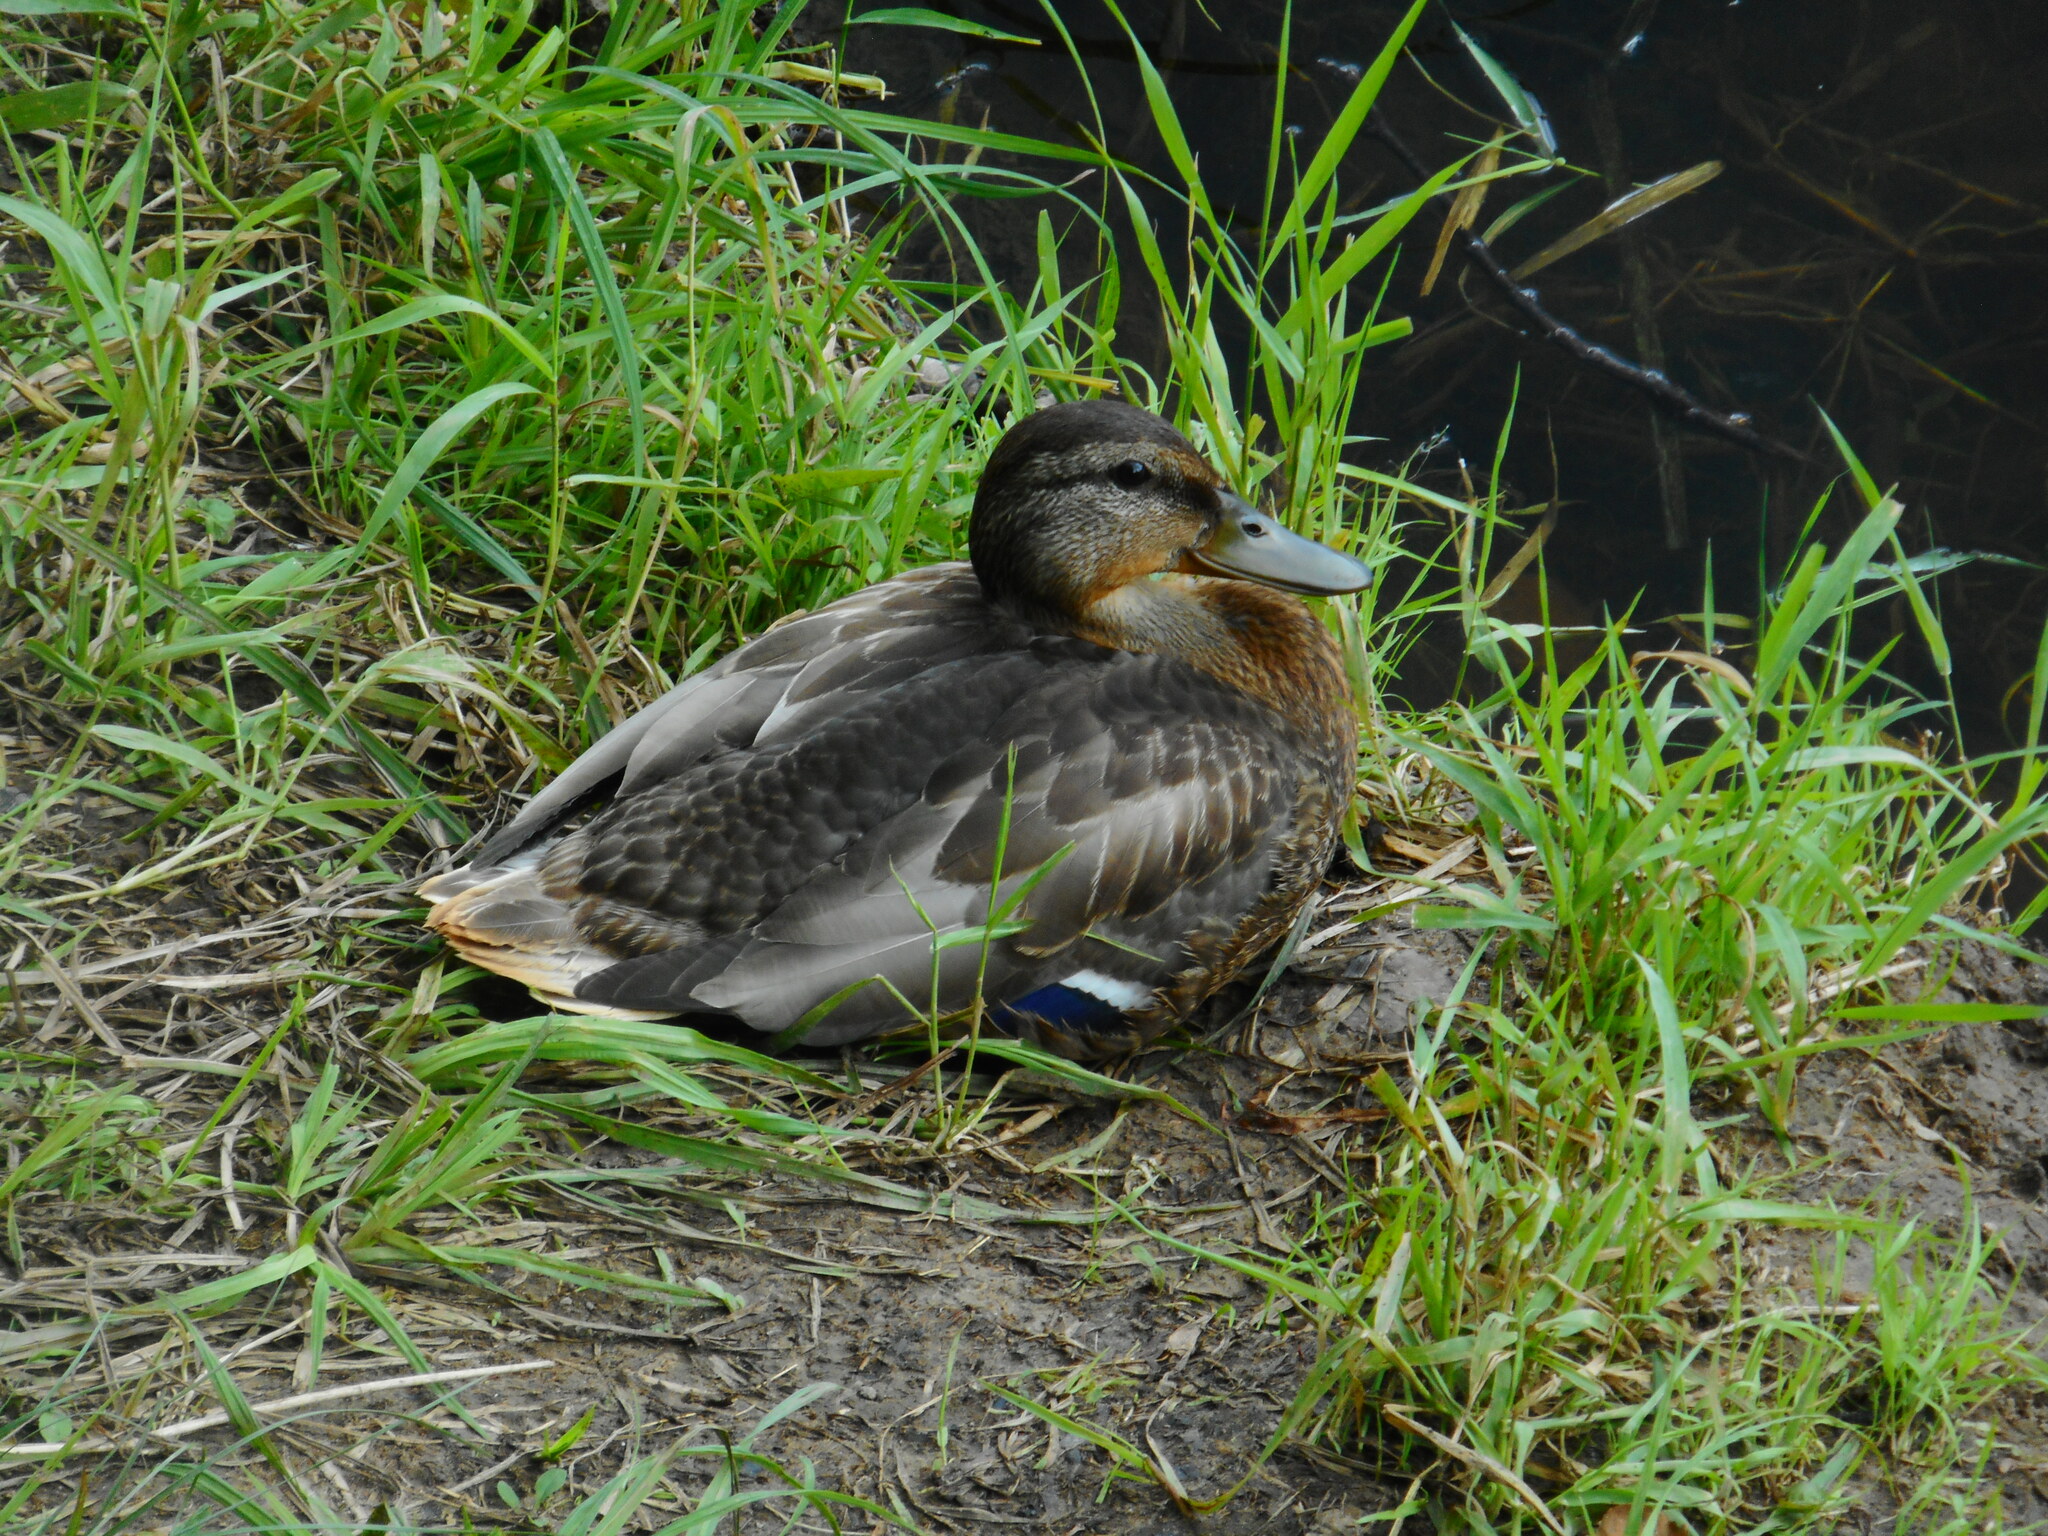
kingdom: Animalia
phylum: Chordata
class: Aves
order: Anseriformes
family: Anatidae
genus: Anas
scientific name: Anas platyrhynchos
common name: Mallard
